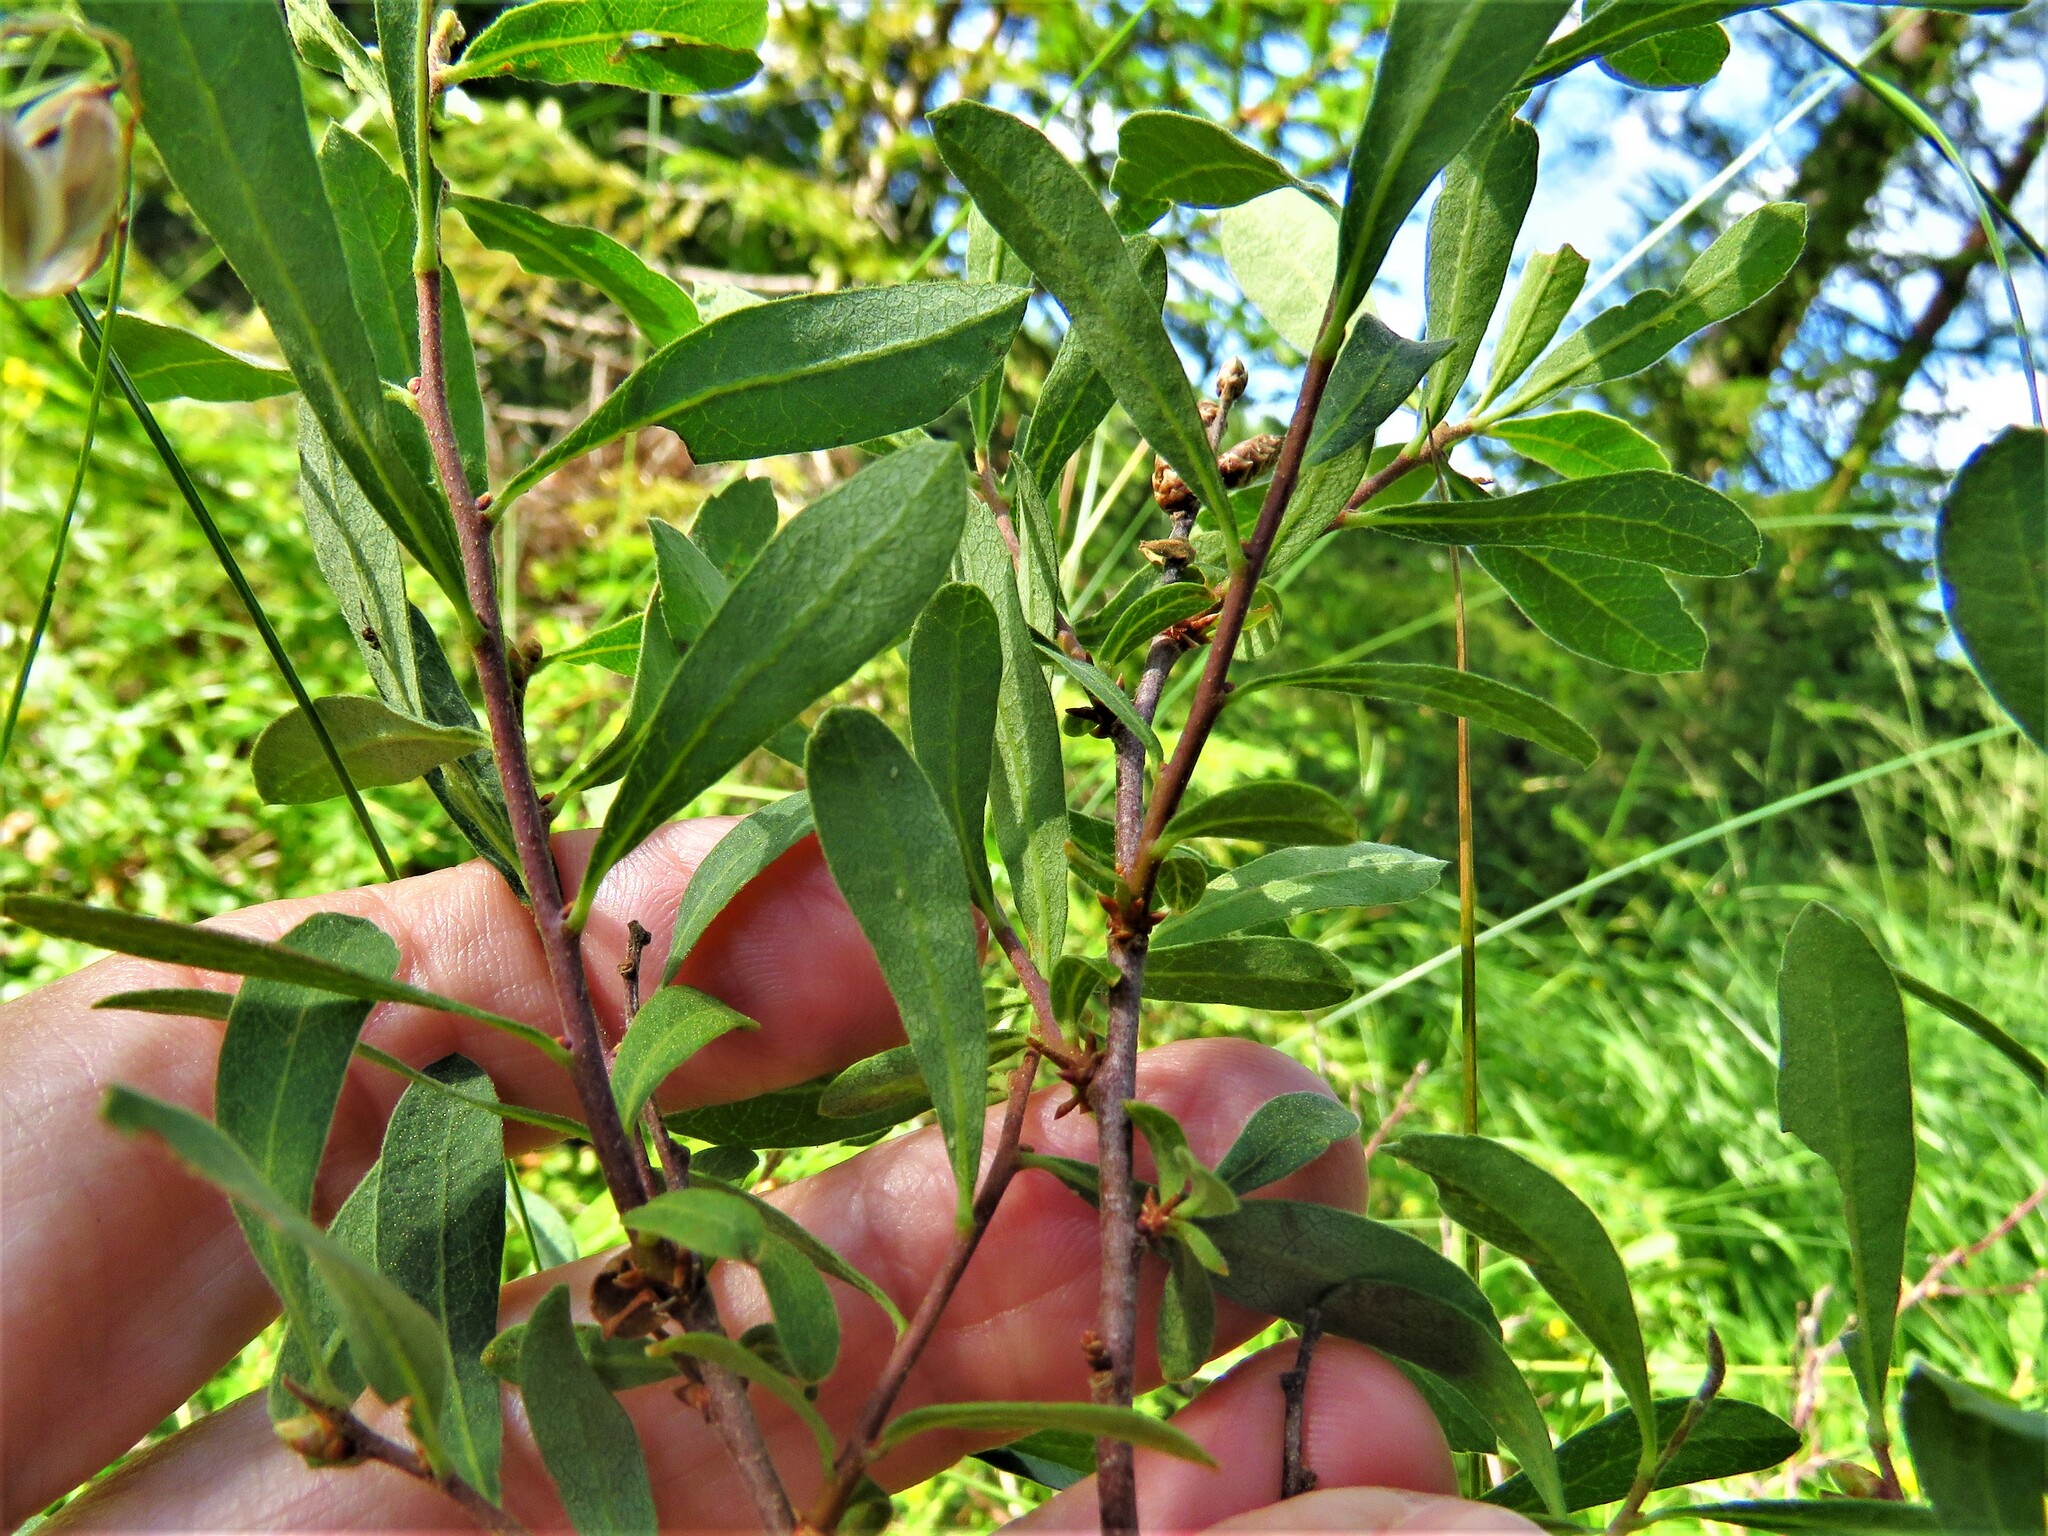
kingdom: Plantae
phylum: Tracheophyta
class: Magnoliopsida
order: Fagales
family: Myricaceae
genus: Myrica
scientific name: Myrica gale
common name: Sweet gale
